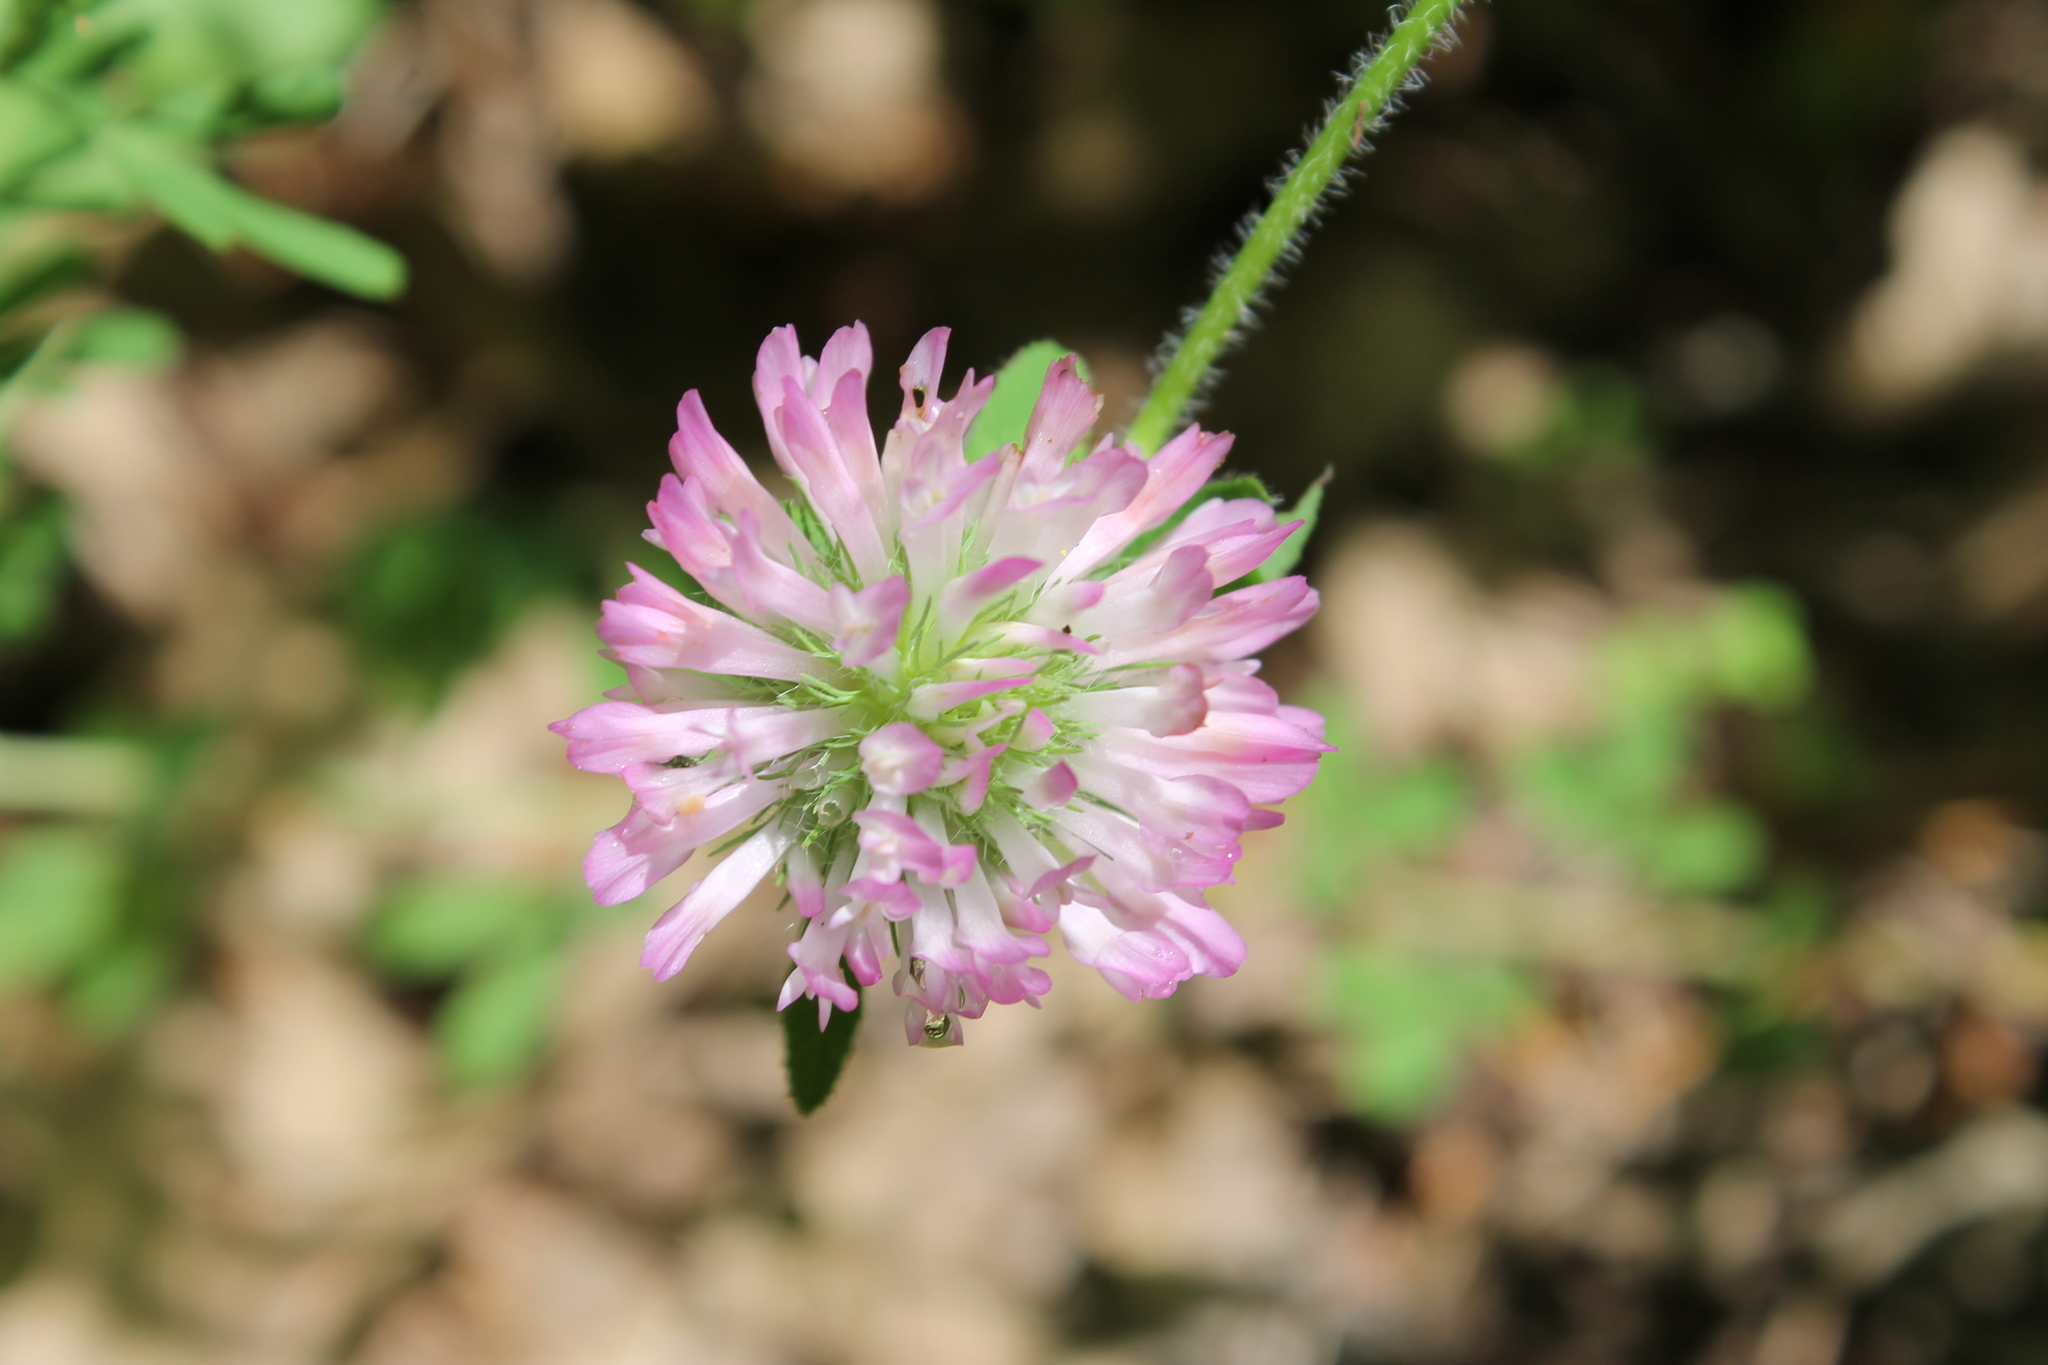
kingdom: Plantae
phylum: Tracheophyta
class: Magnoliopsida
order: Fabales
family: Fabaceae
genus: Trifolium
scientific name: Trifolium pratense
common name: Red clover
